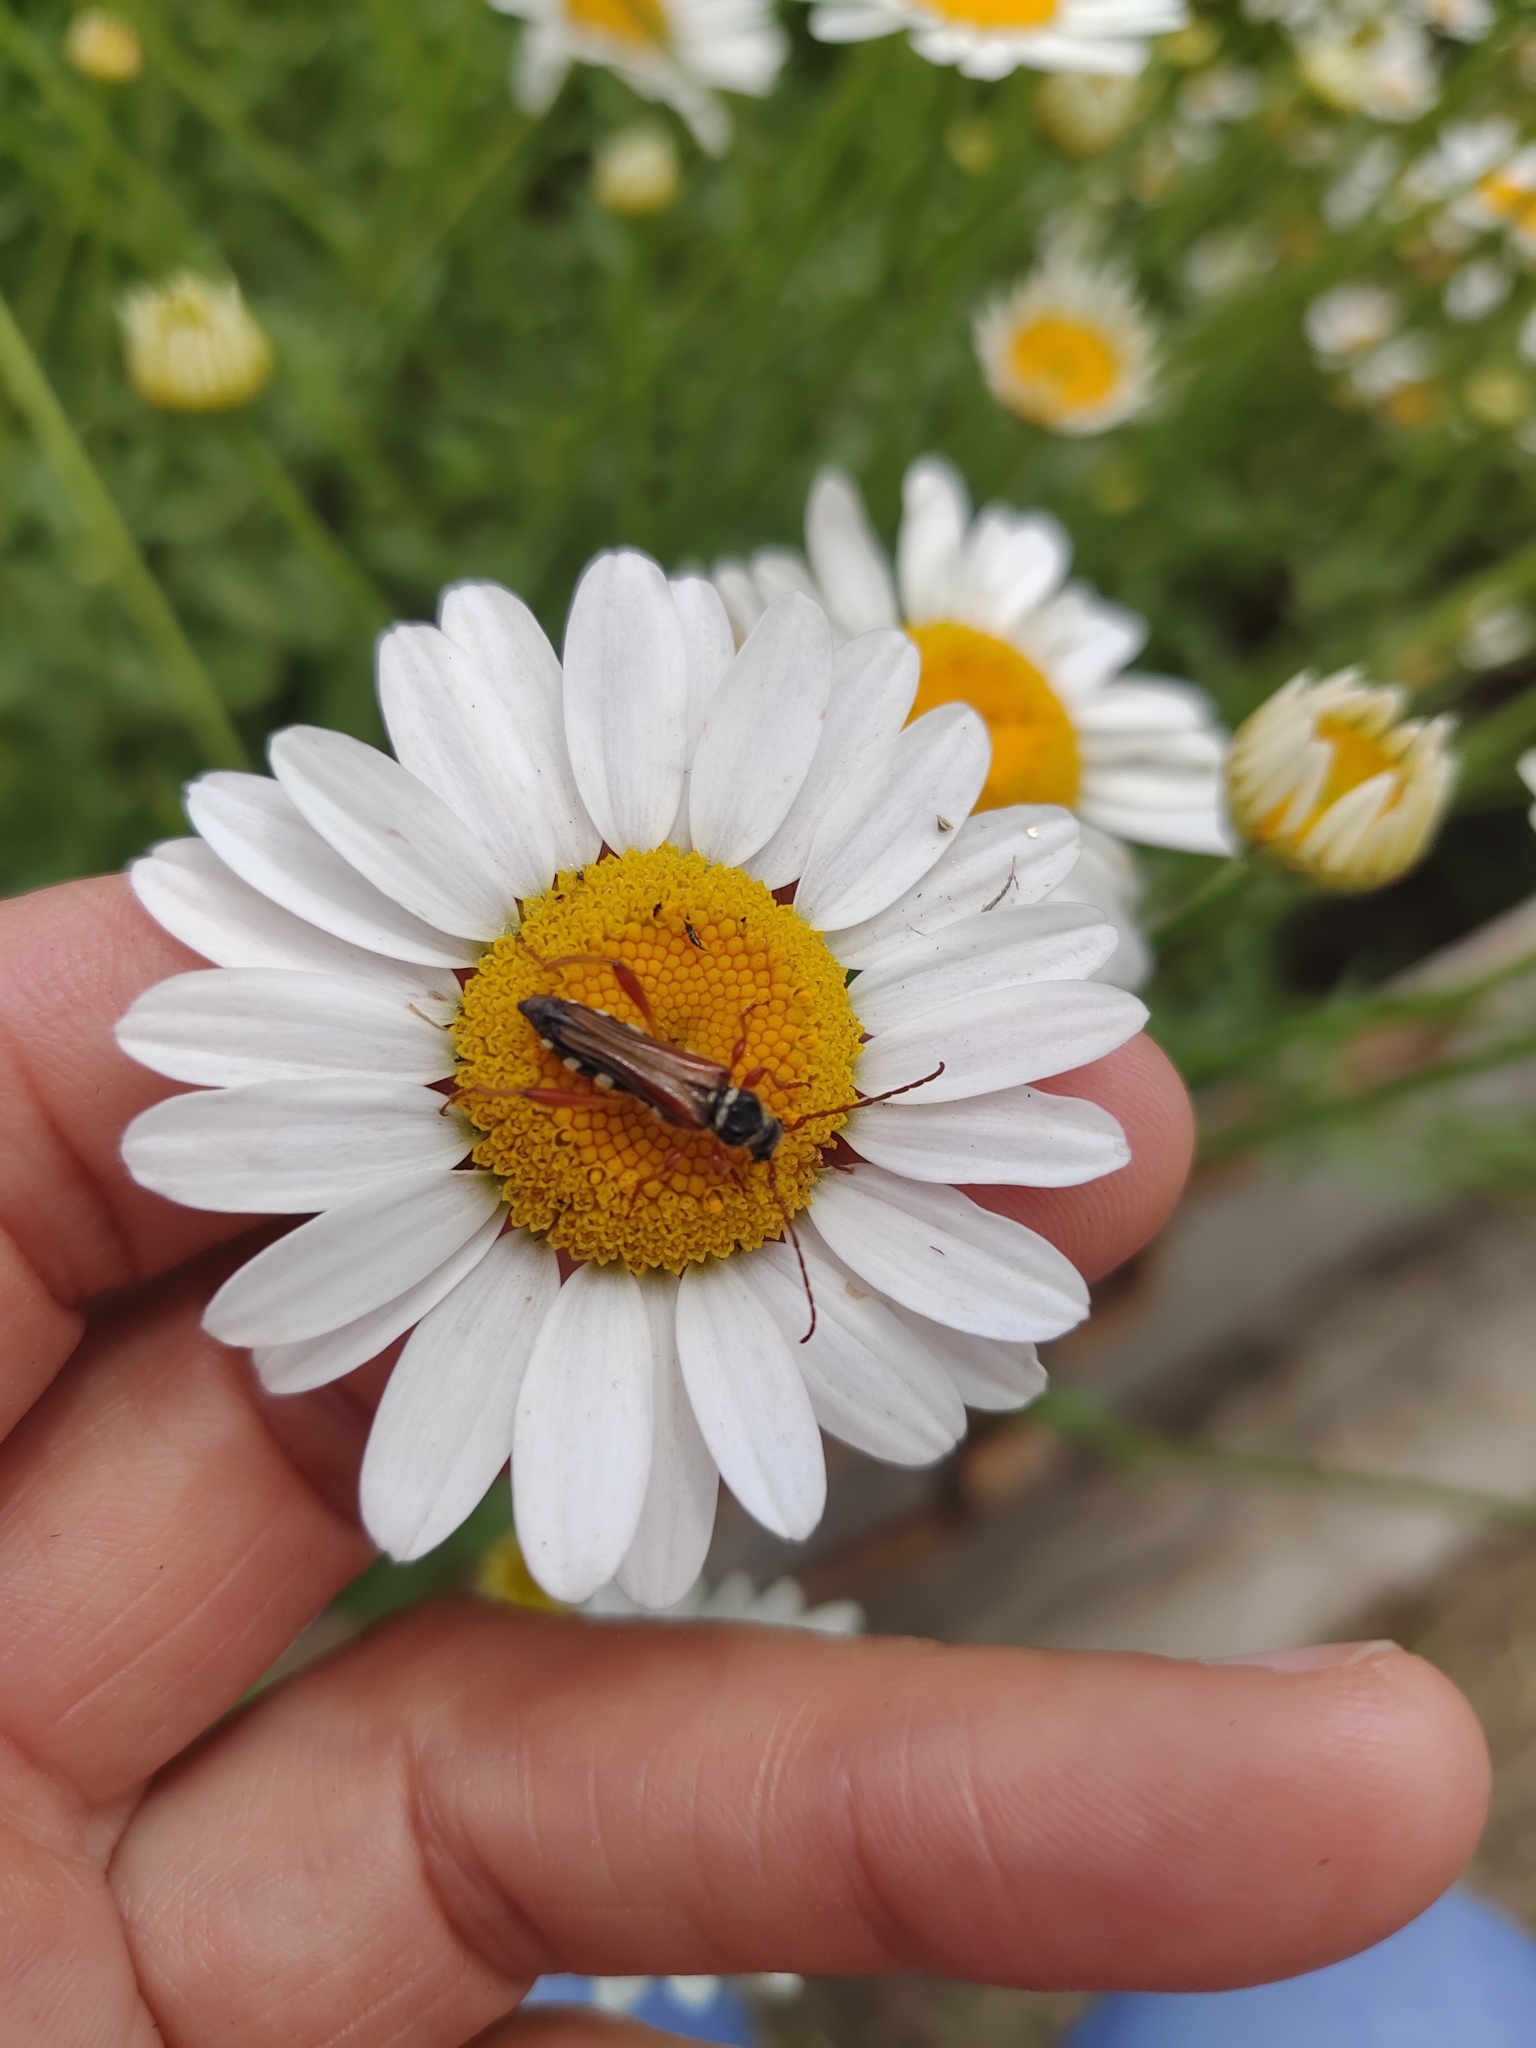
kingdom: Animalia
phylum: Arthropoda
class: Insecta
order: Coleoptera
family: Cerambycidae
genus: Stenopterus
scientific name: Stenopterus mauritanicus
